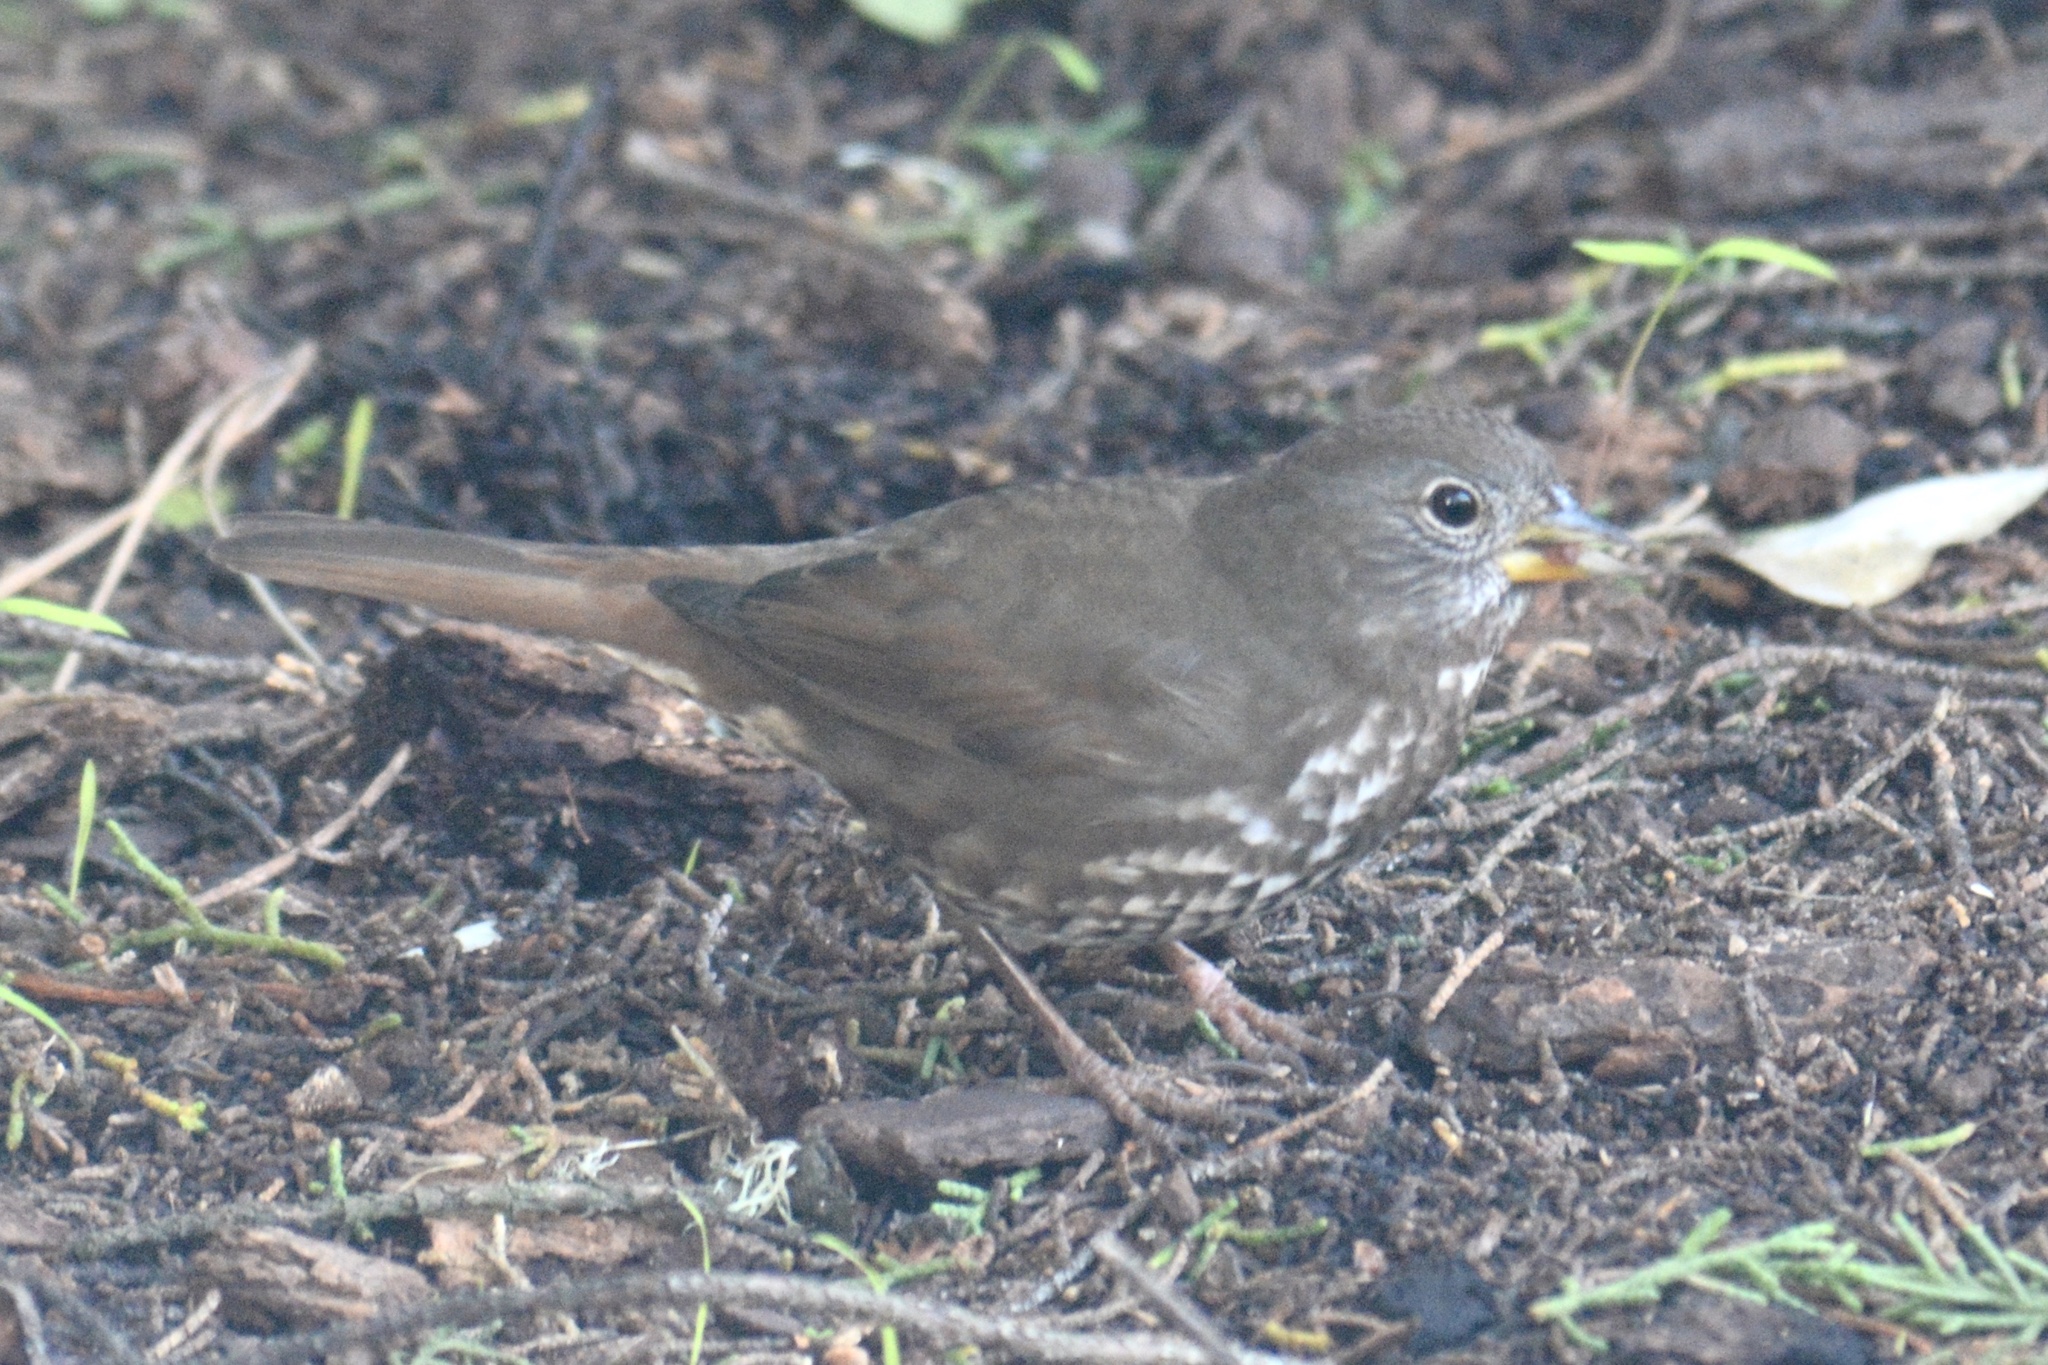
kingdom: Animalia
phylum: Chordata
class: Aves
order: Passeriformes
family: Passerellidae
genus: Passerella
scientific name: Passerella iliaca
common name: Fox sparrow
